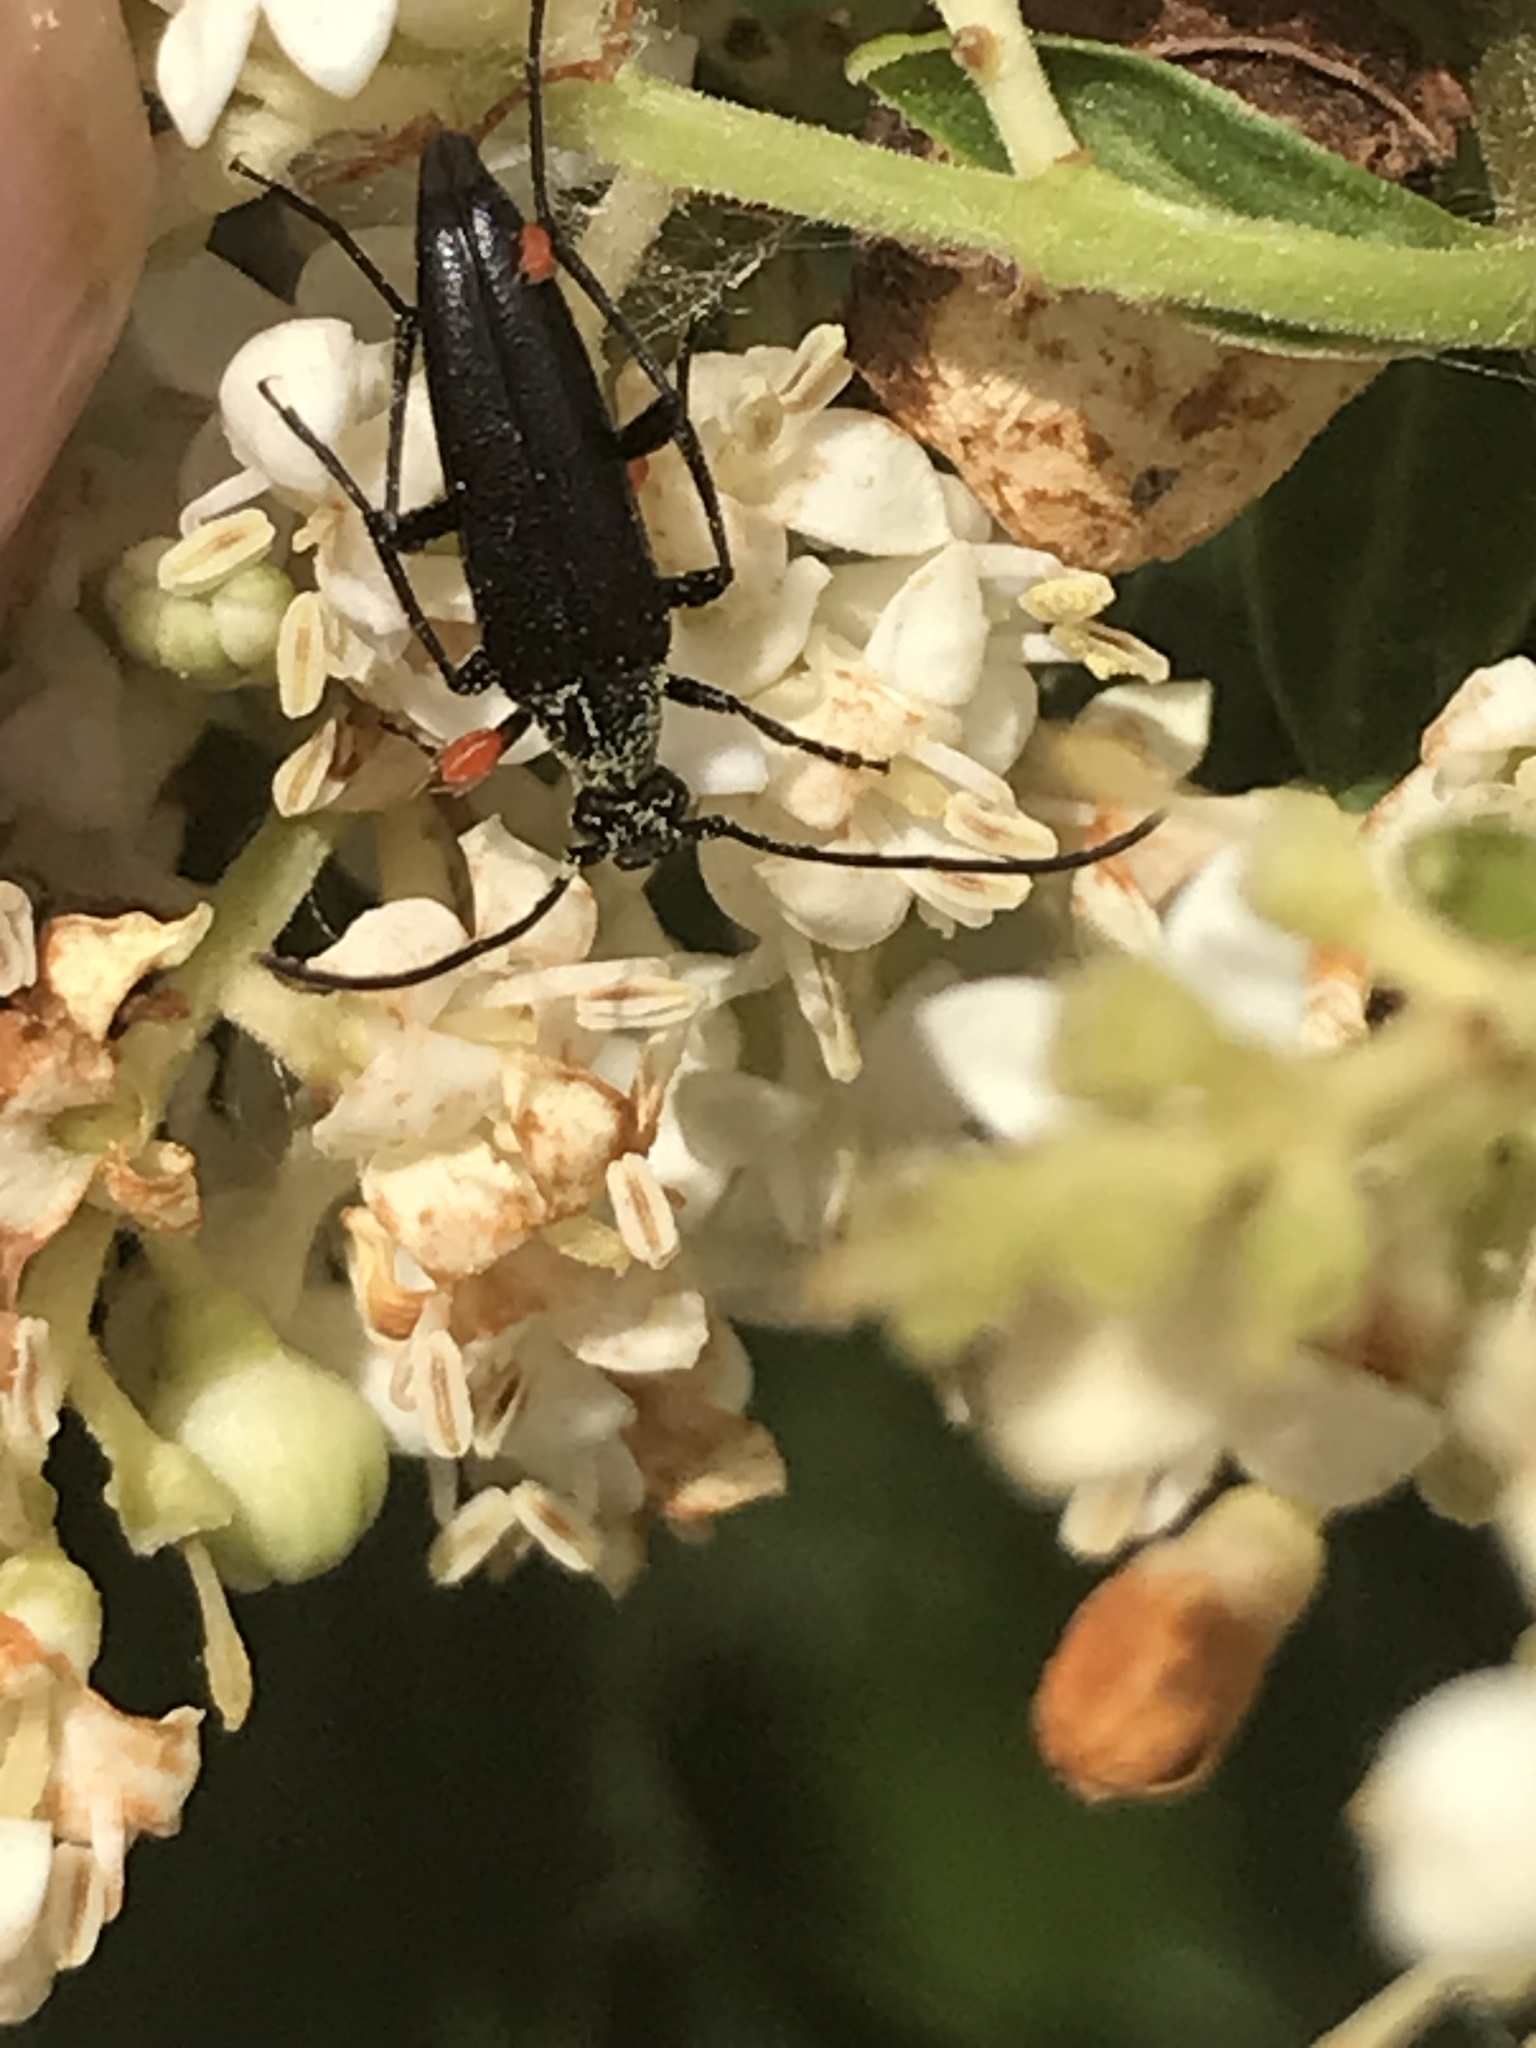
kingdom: Animalia
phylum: Arthropoda
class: Insecta
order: Coleoptera
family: Cerambycidae
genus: Stenurella
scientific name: Stenurella nigra
